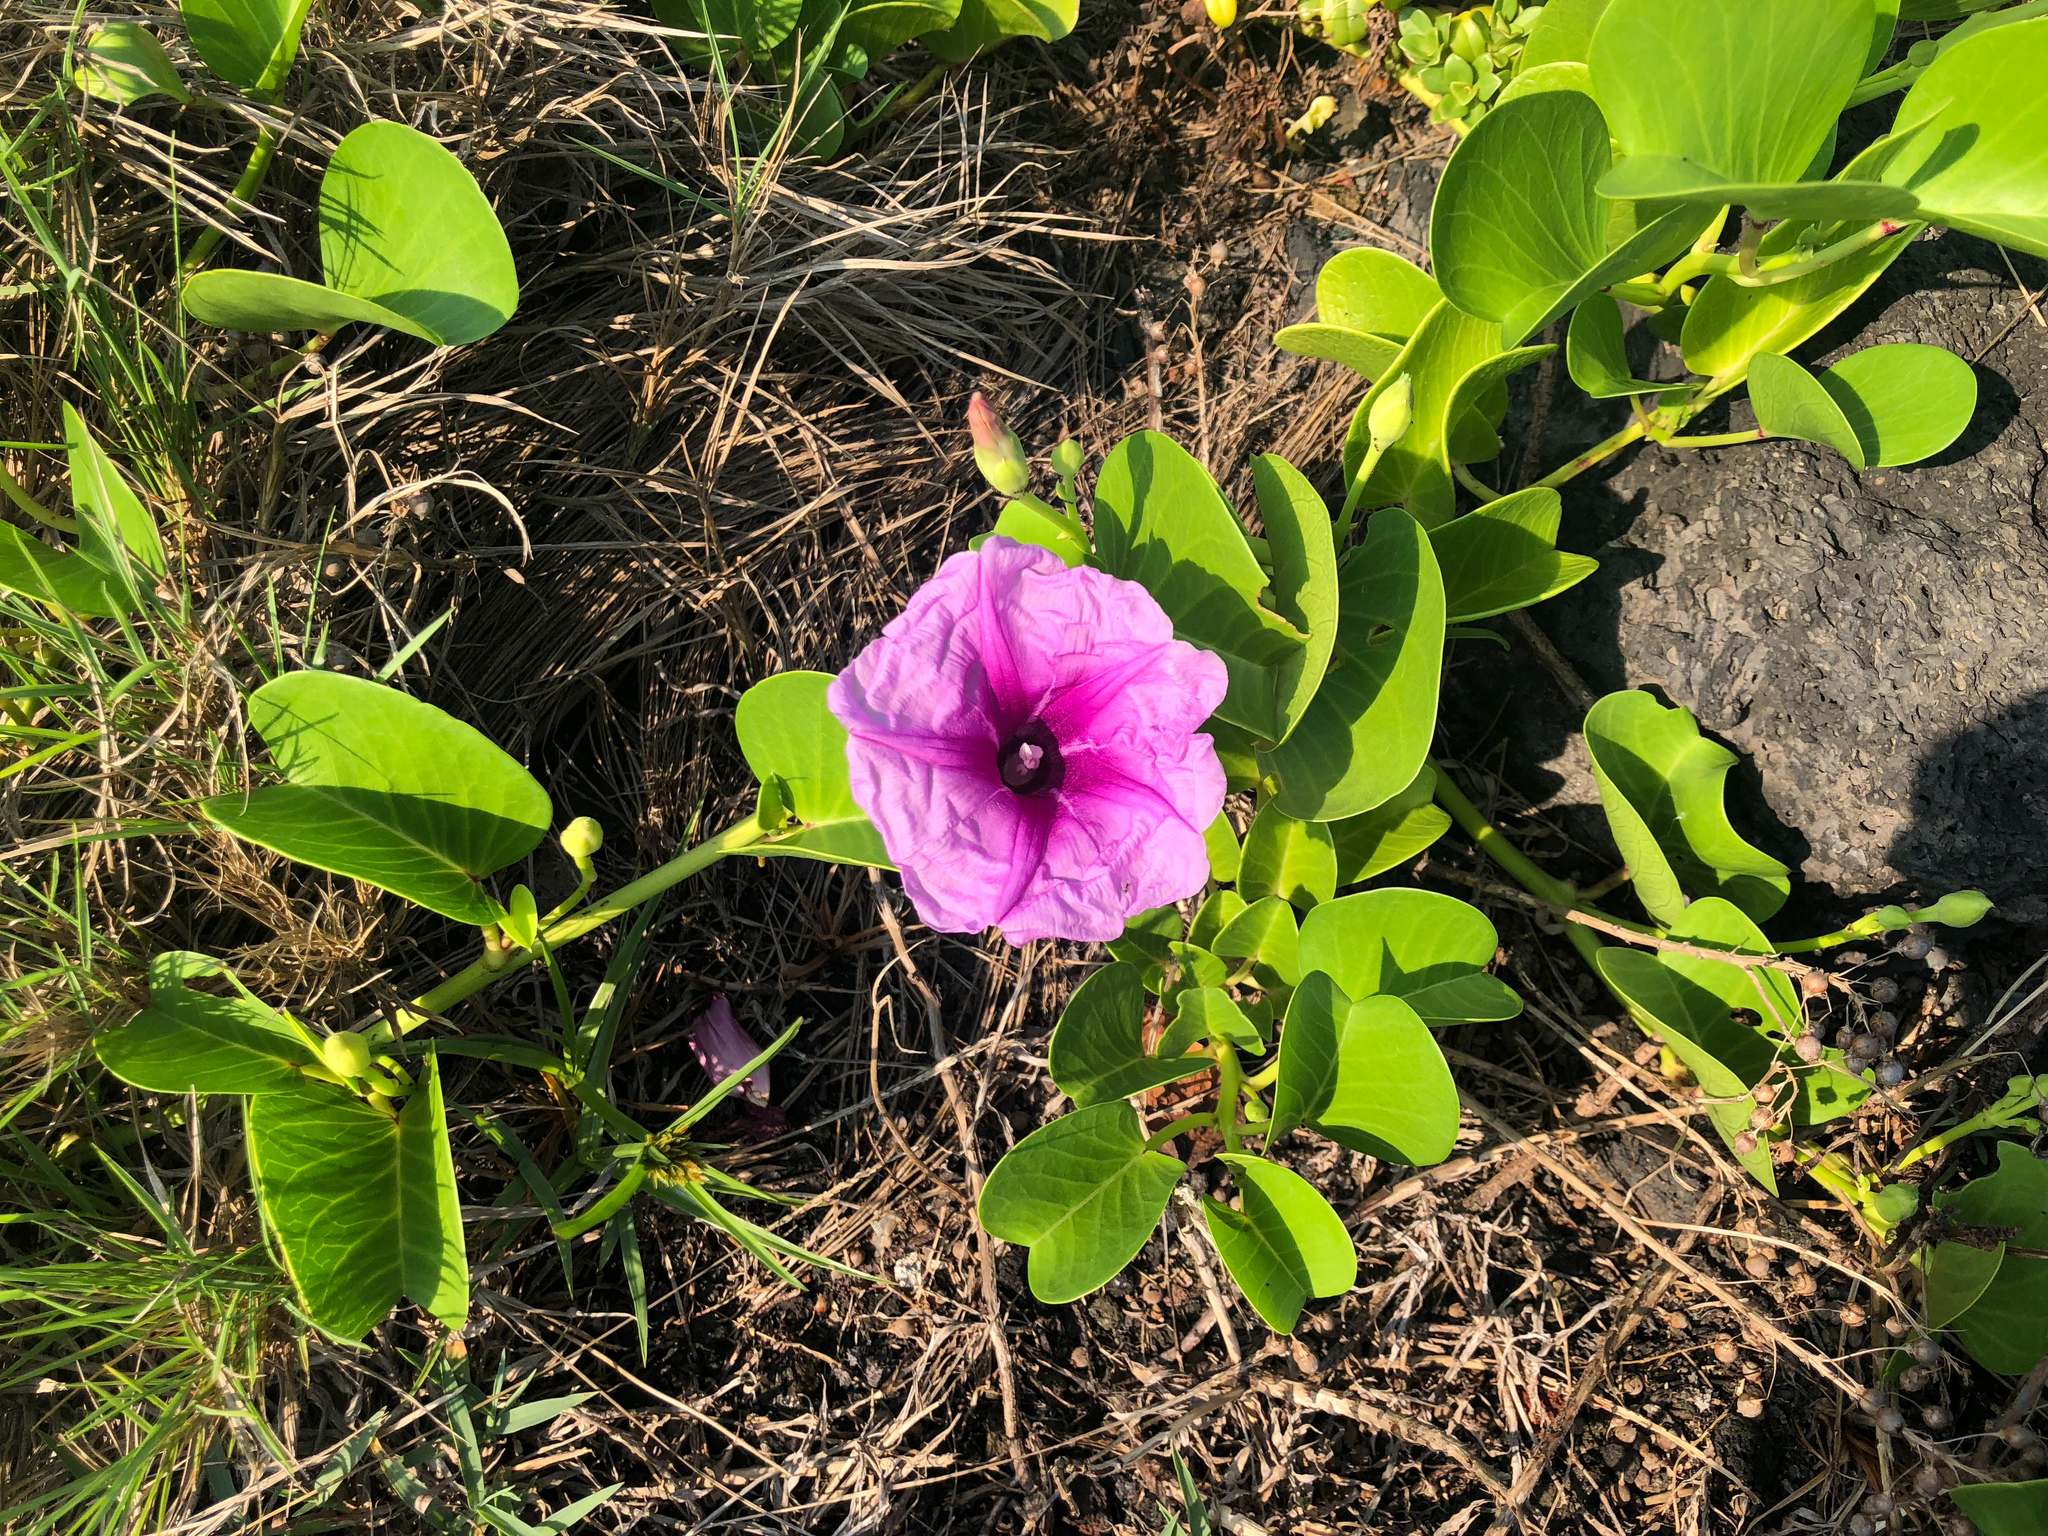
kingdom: Plantae
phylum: Tracheophyta
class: Magnoliopsida
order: Solanales
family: Convolvulaceae
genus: Ipomoea
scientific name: Ipomoea pes-caprae
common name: Beach morning glory
